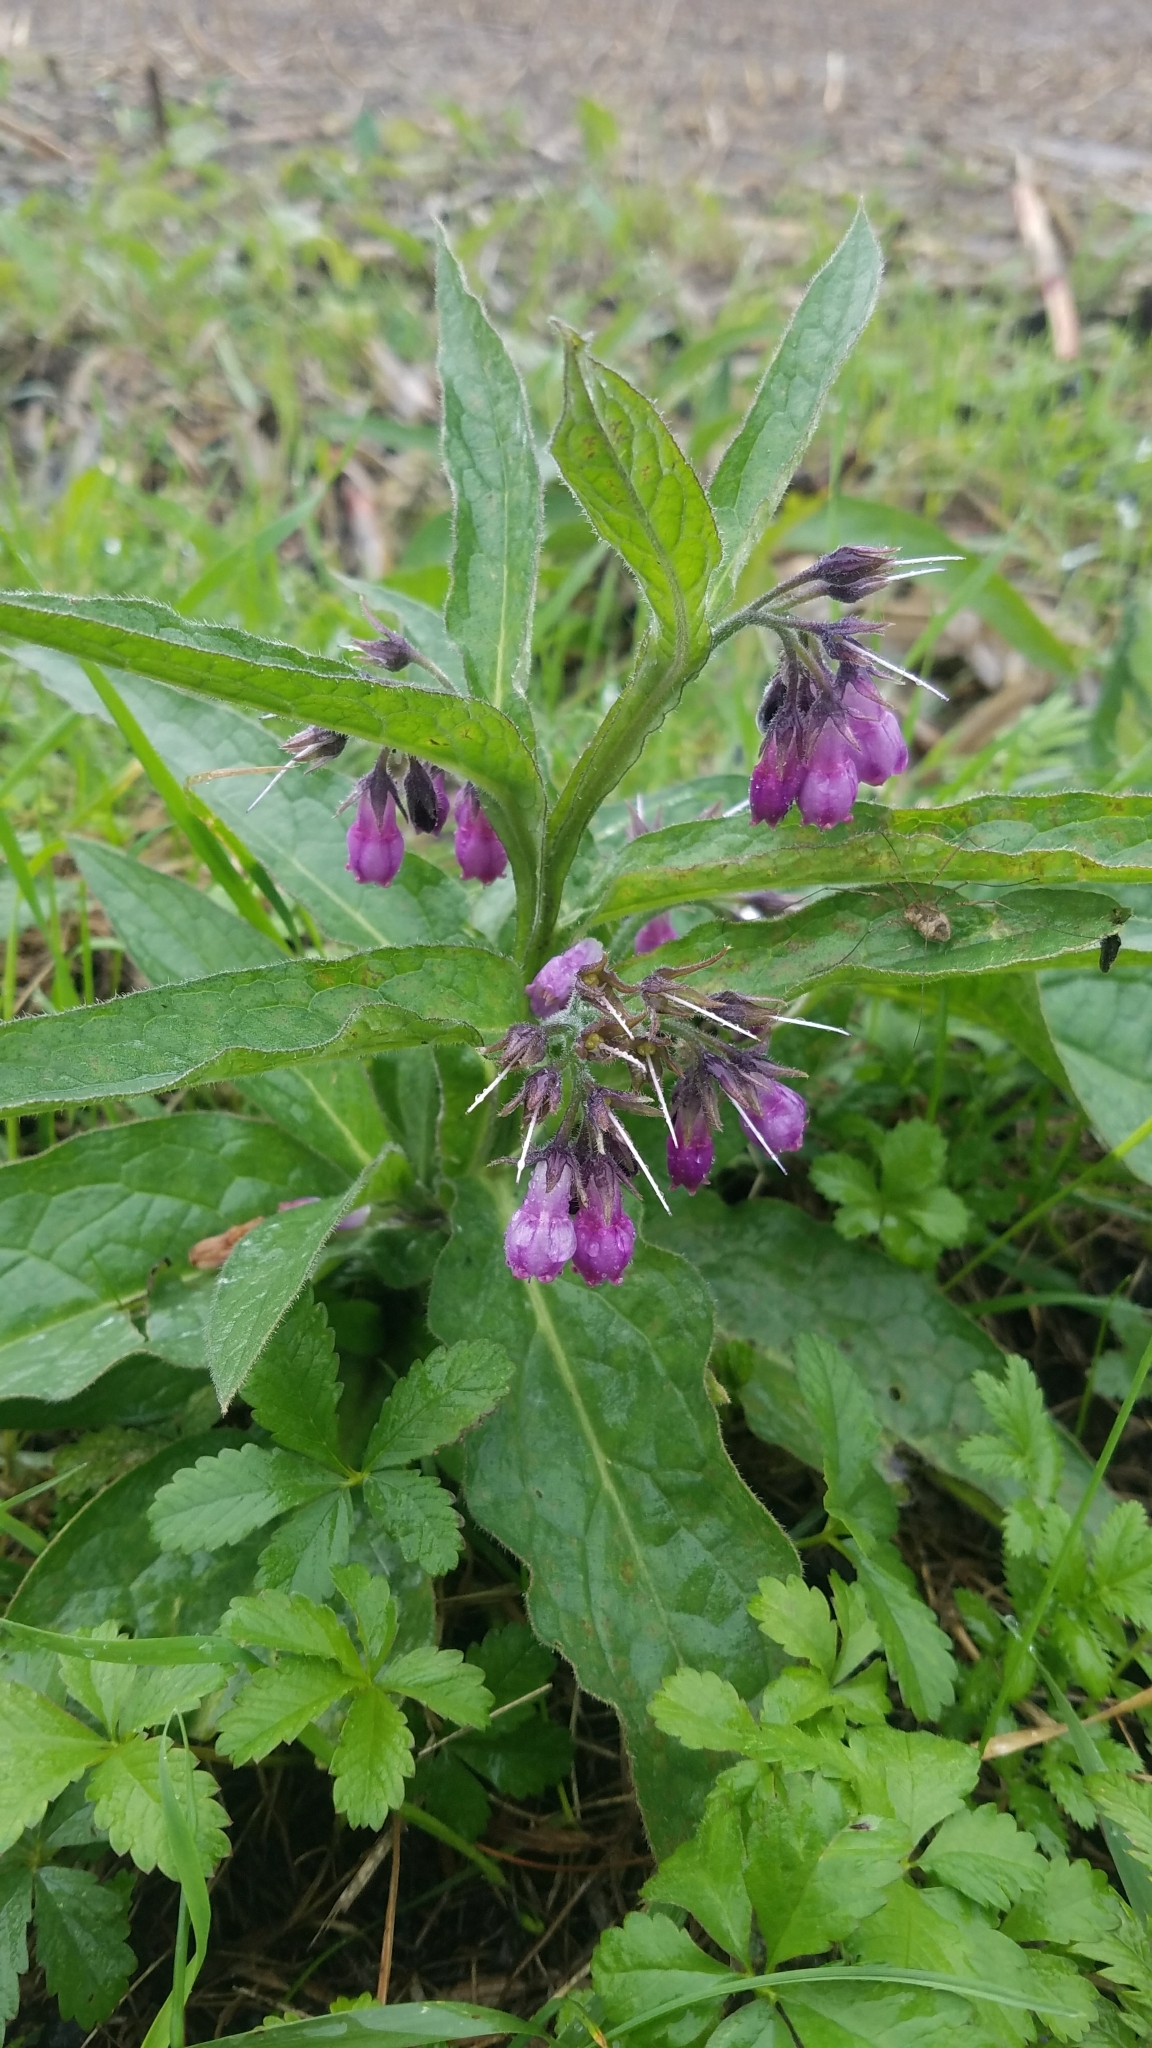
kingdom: Plantae
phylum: Tracheophyta
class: Magnoliopsida
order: Boraginales
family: Boraginaceae
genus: Symphytum
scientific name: Symphytum officinale
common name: Common comfrey
